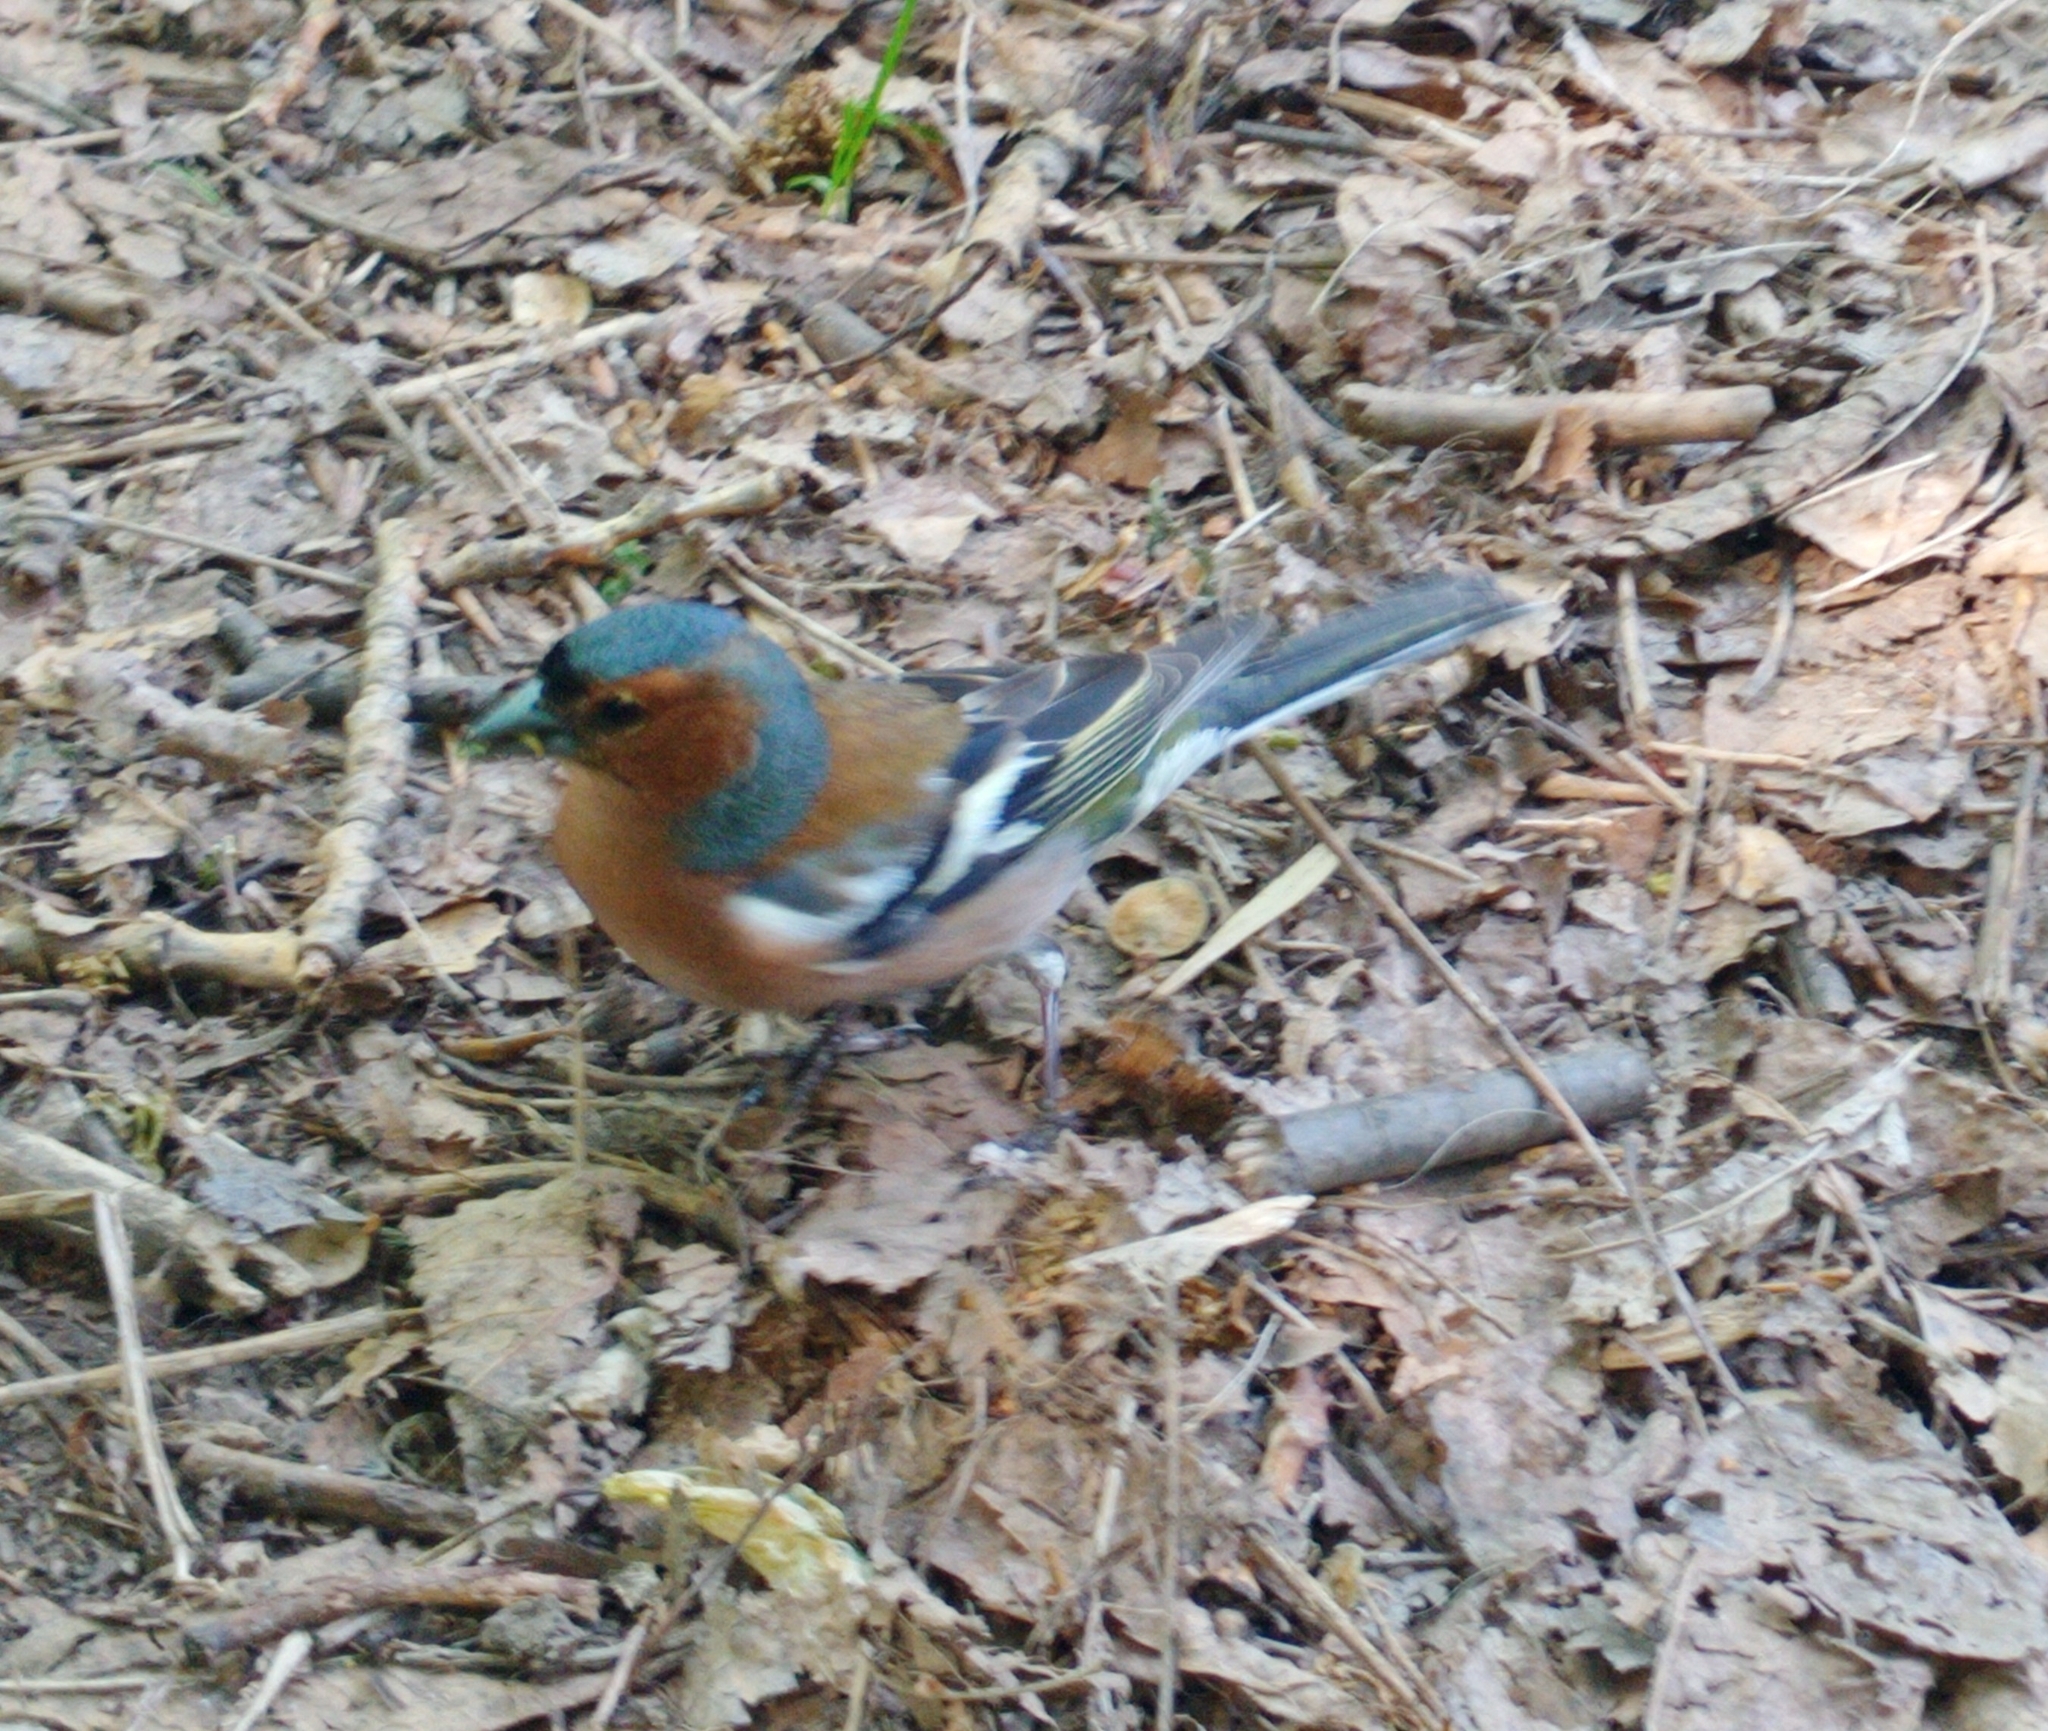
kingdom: Animalia
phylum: Chordata
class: Aves
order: Passeriformes
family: Fringillidae
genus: Fringilla
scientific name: Fringilla coelebs
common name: Common chaffinch
